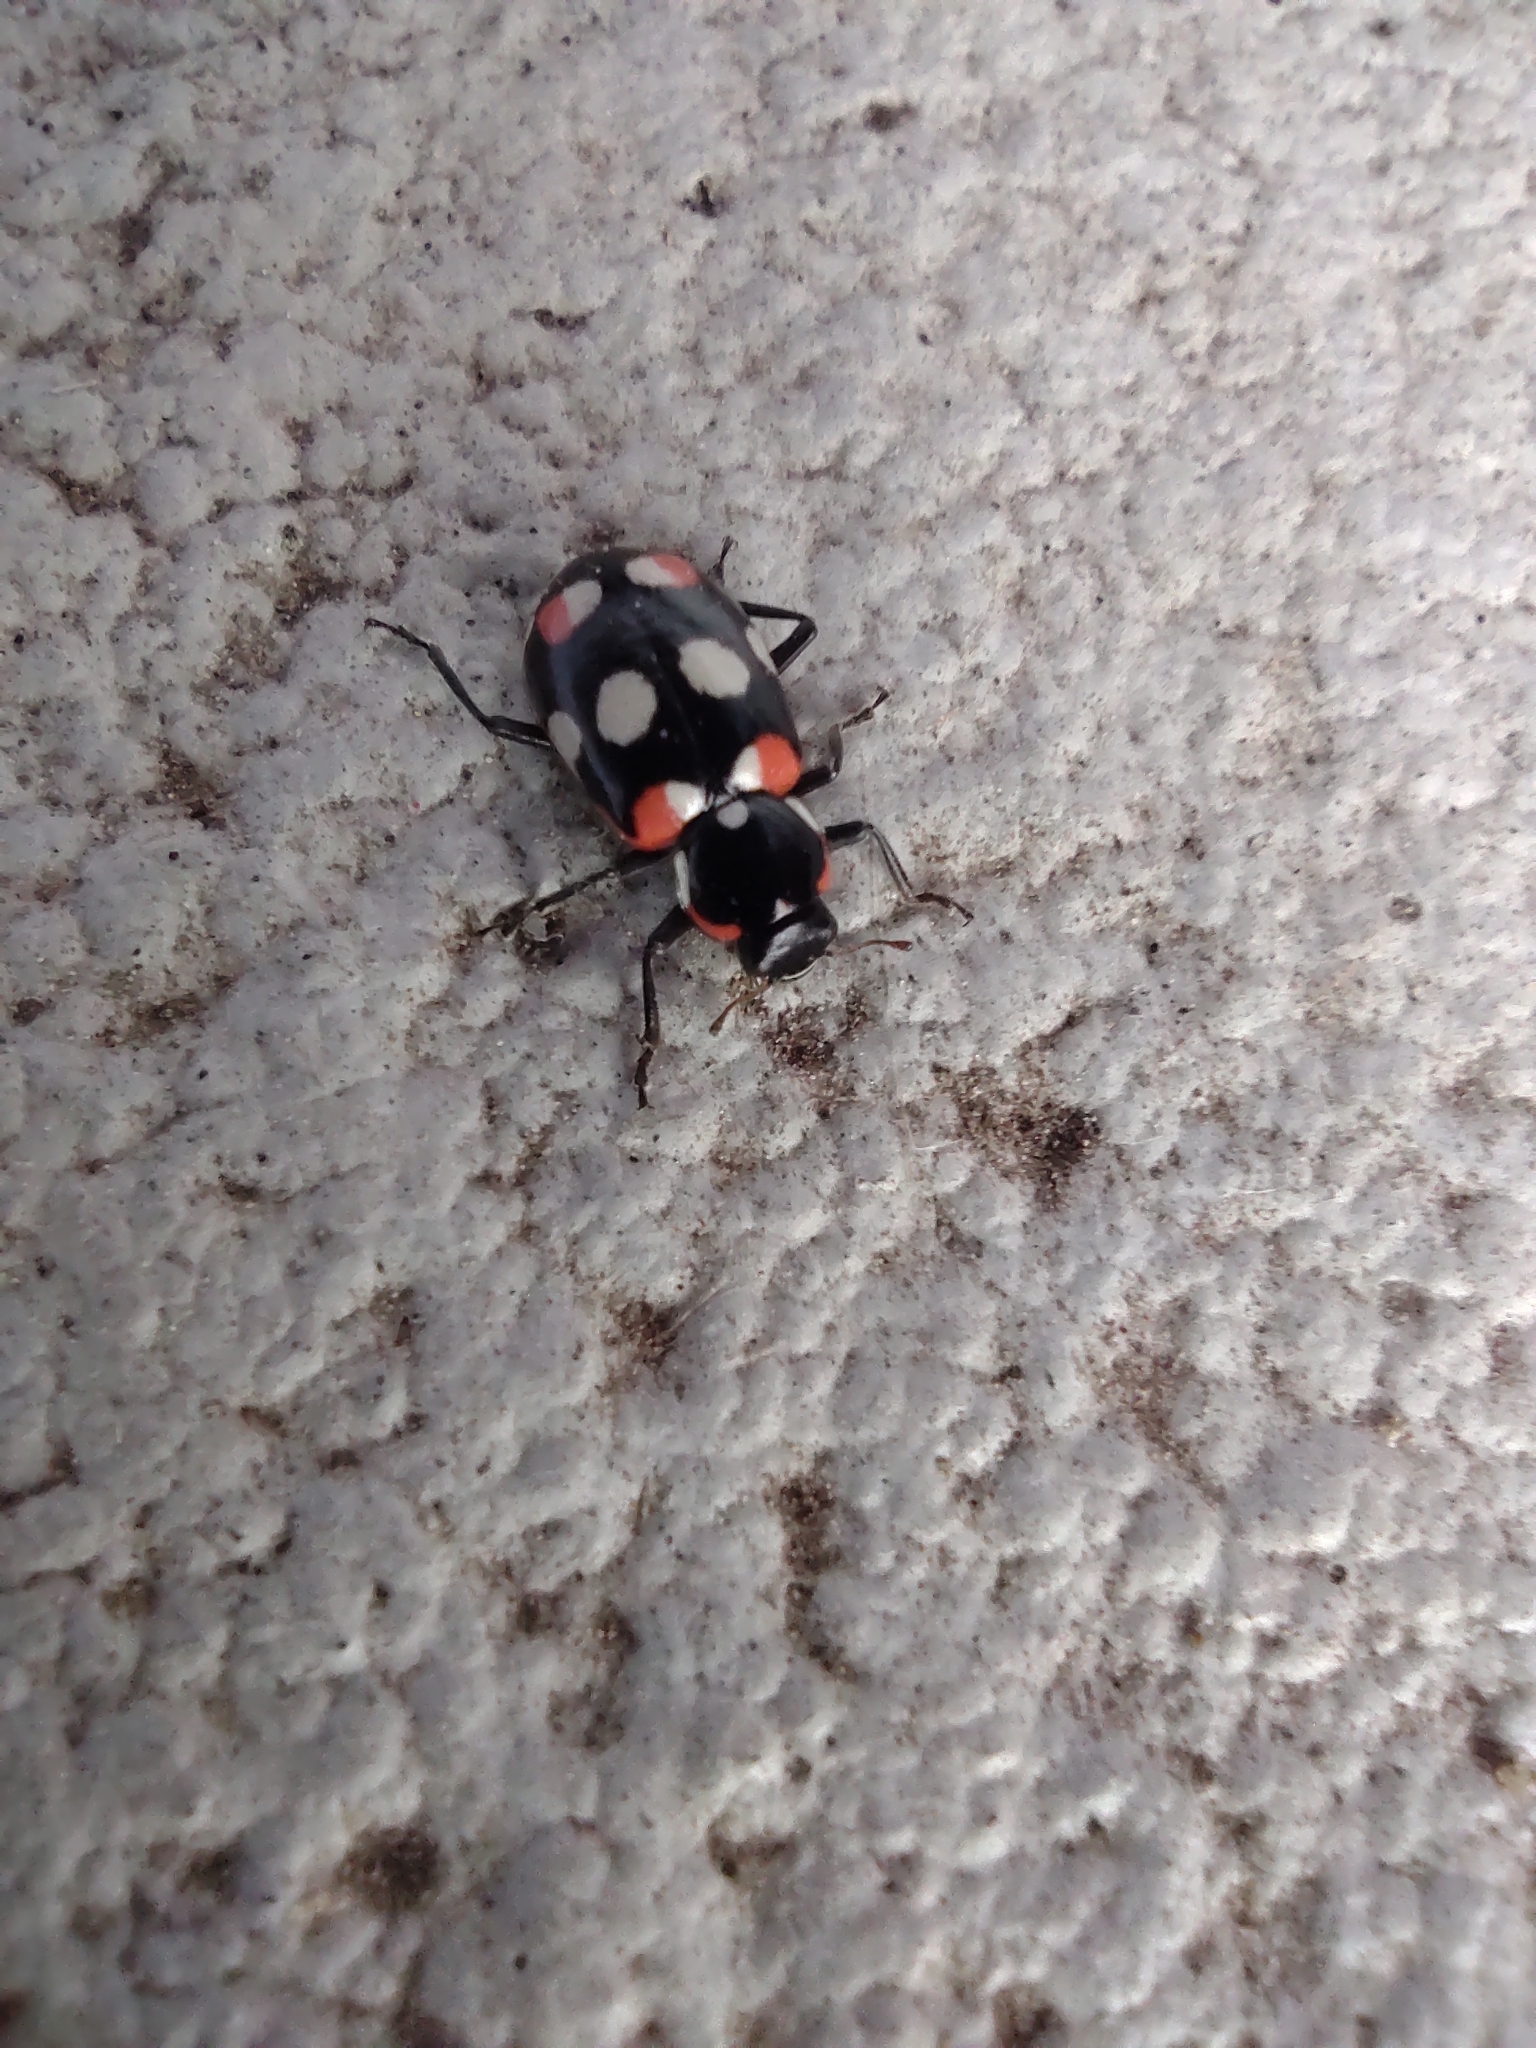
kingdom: Animalia
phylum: Arthropoda
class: Insecta
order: Coleoptera
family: Coccinellidae
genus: Eriopis
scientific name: Eriopis connexa
